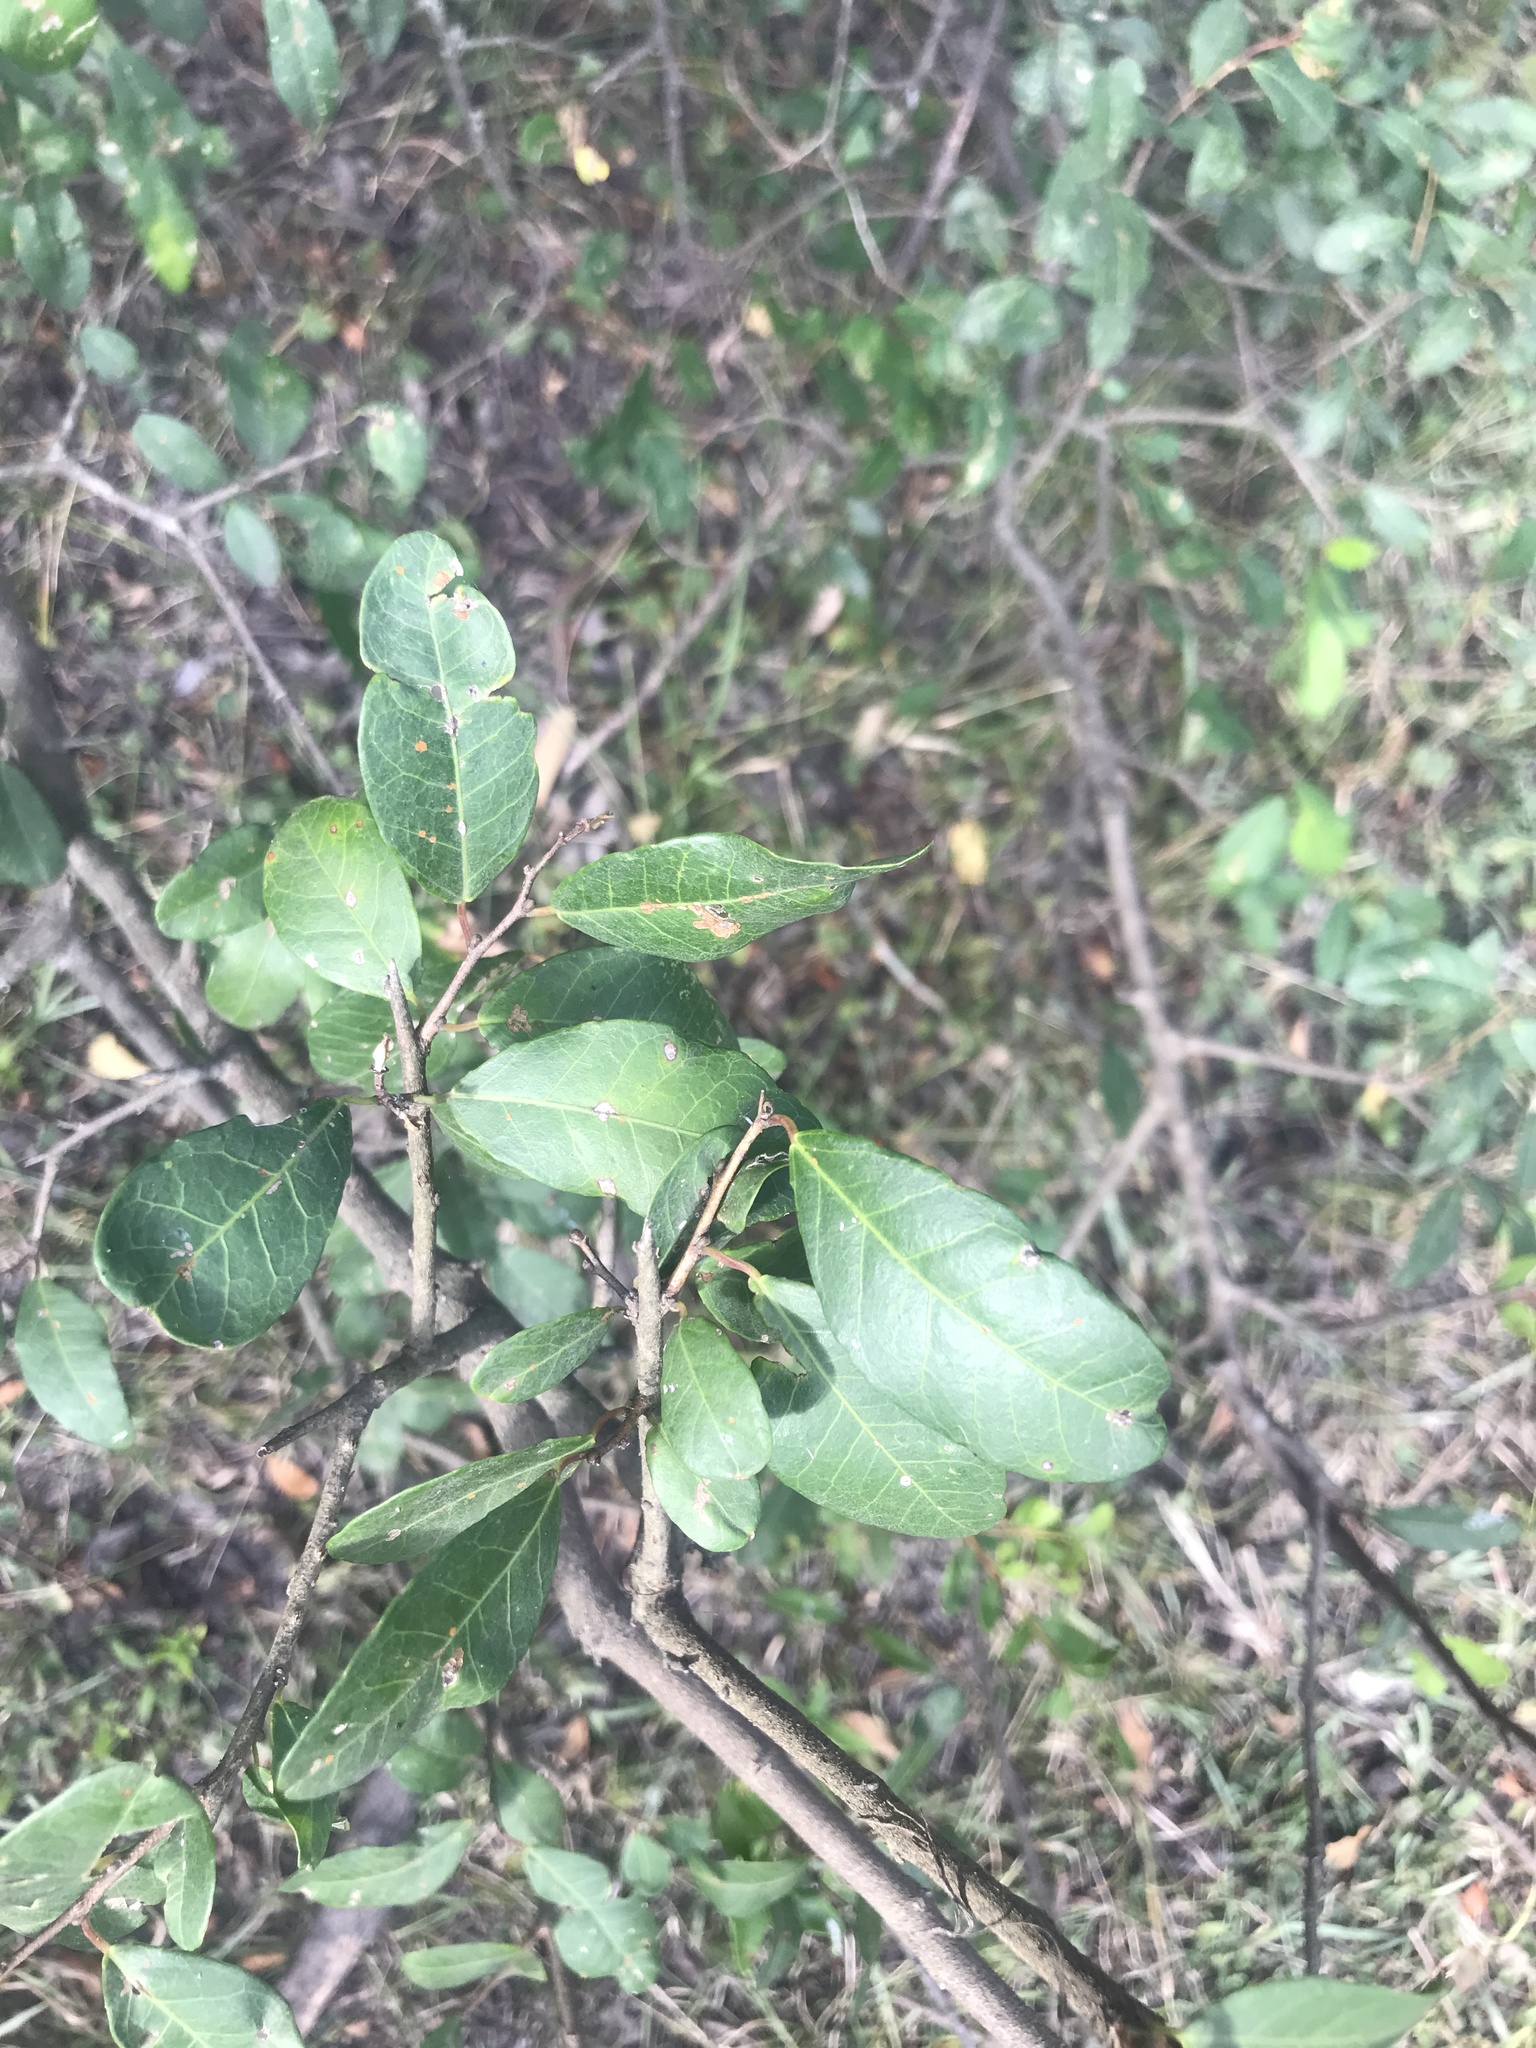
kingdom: Plantae
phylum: Tracheophyta
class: Magnoliopsida
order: Malpighiales
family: Euphorbiaceae
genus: Sebastiania
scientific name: Sebastiania klotzschiana
